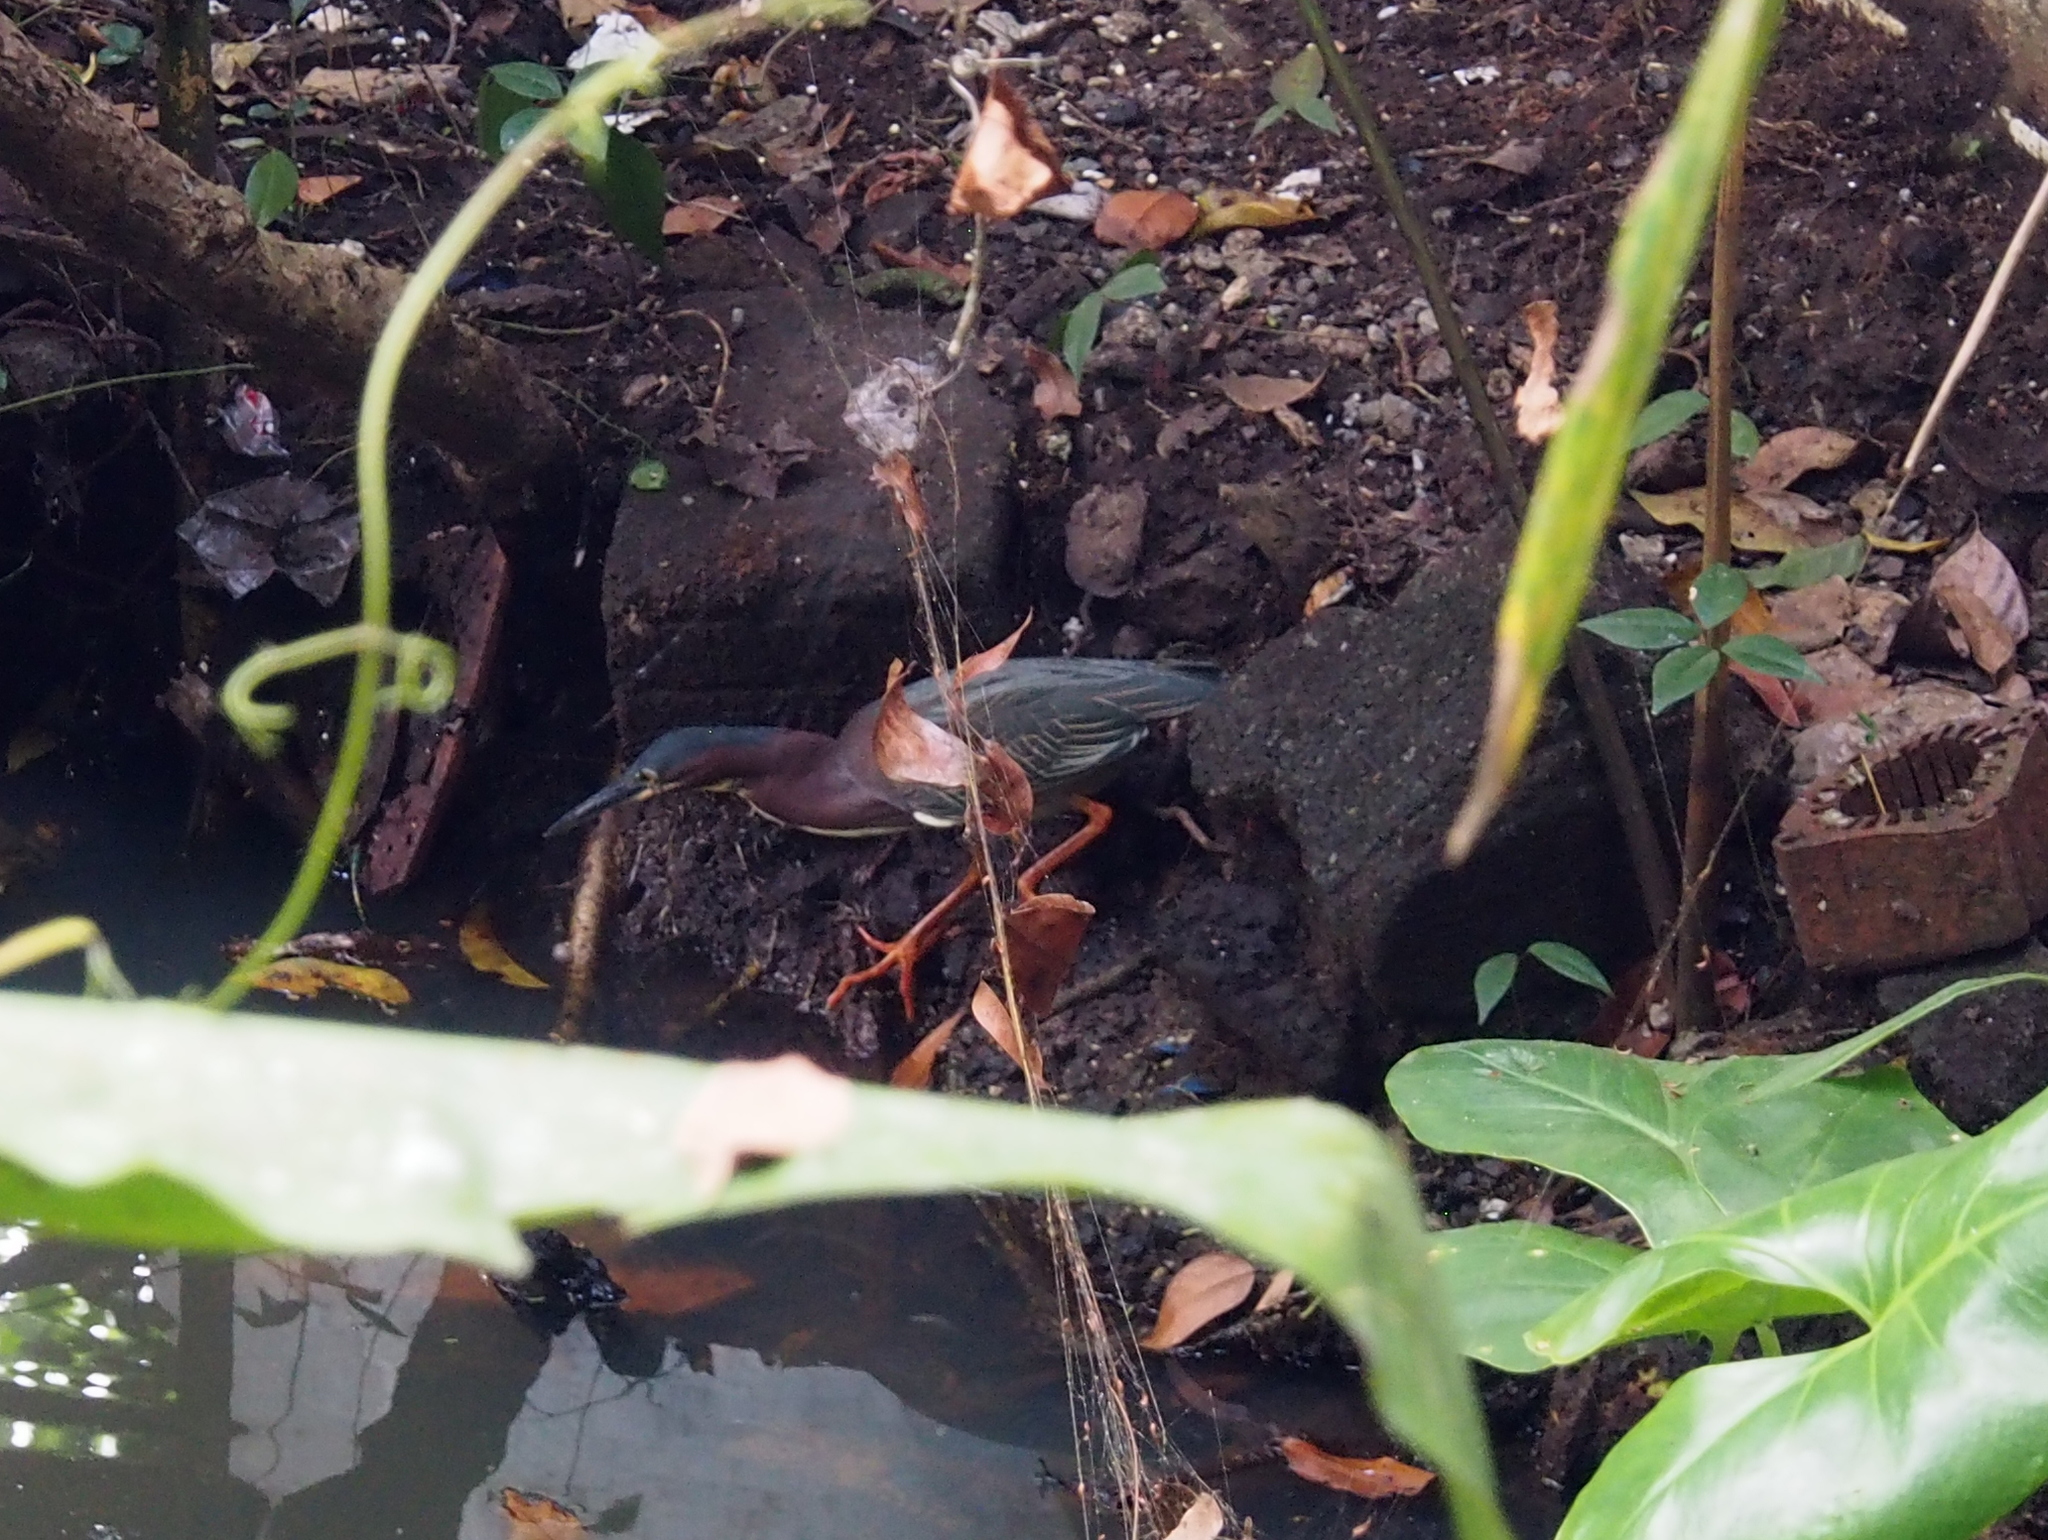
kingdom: Animalia
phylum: Chordata
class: Aves
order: Pelecaniformes
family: Ardeidae
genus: Butorides
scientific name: Butorides virescens
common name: Green heron
